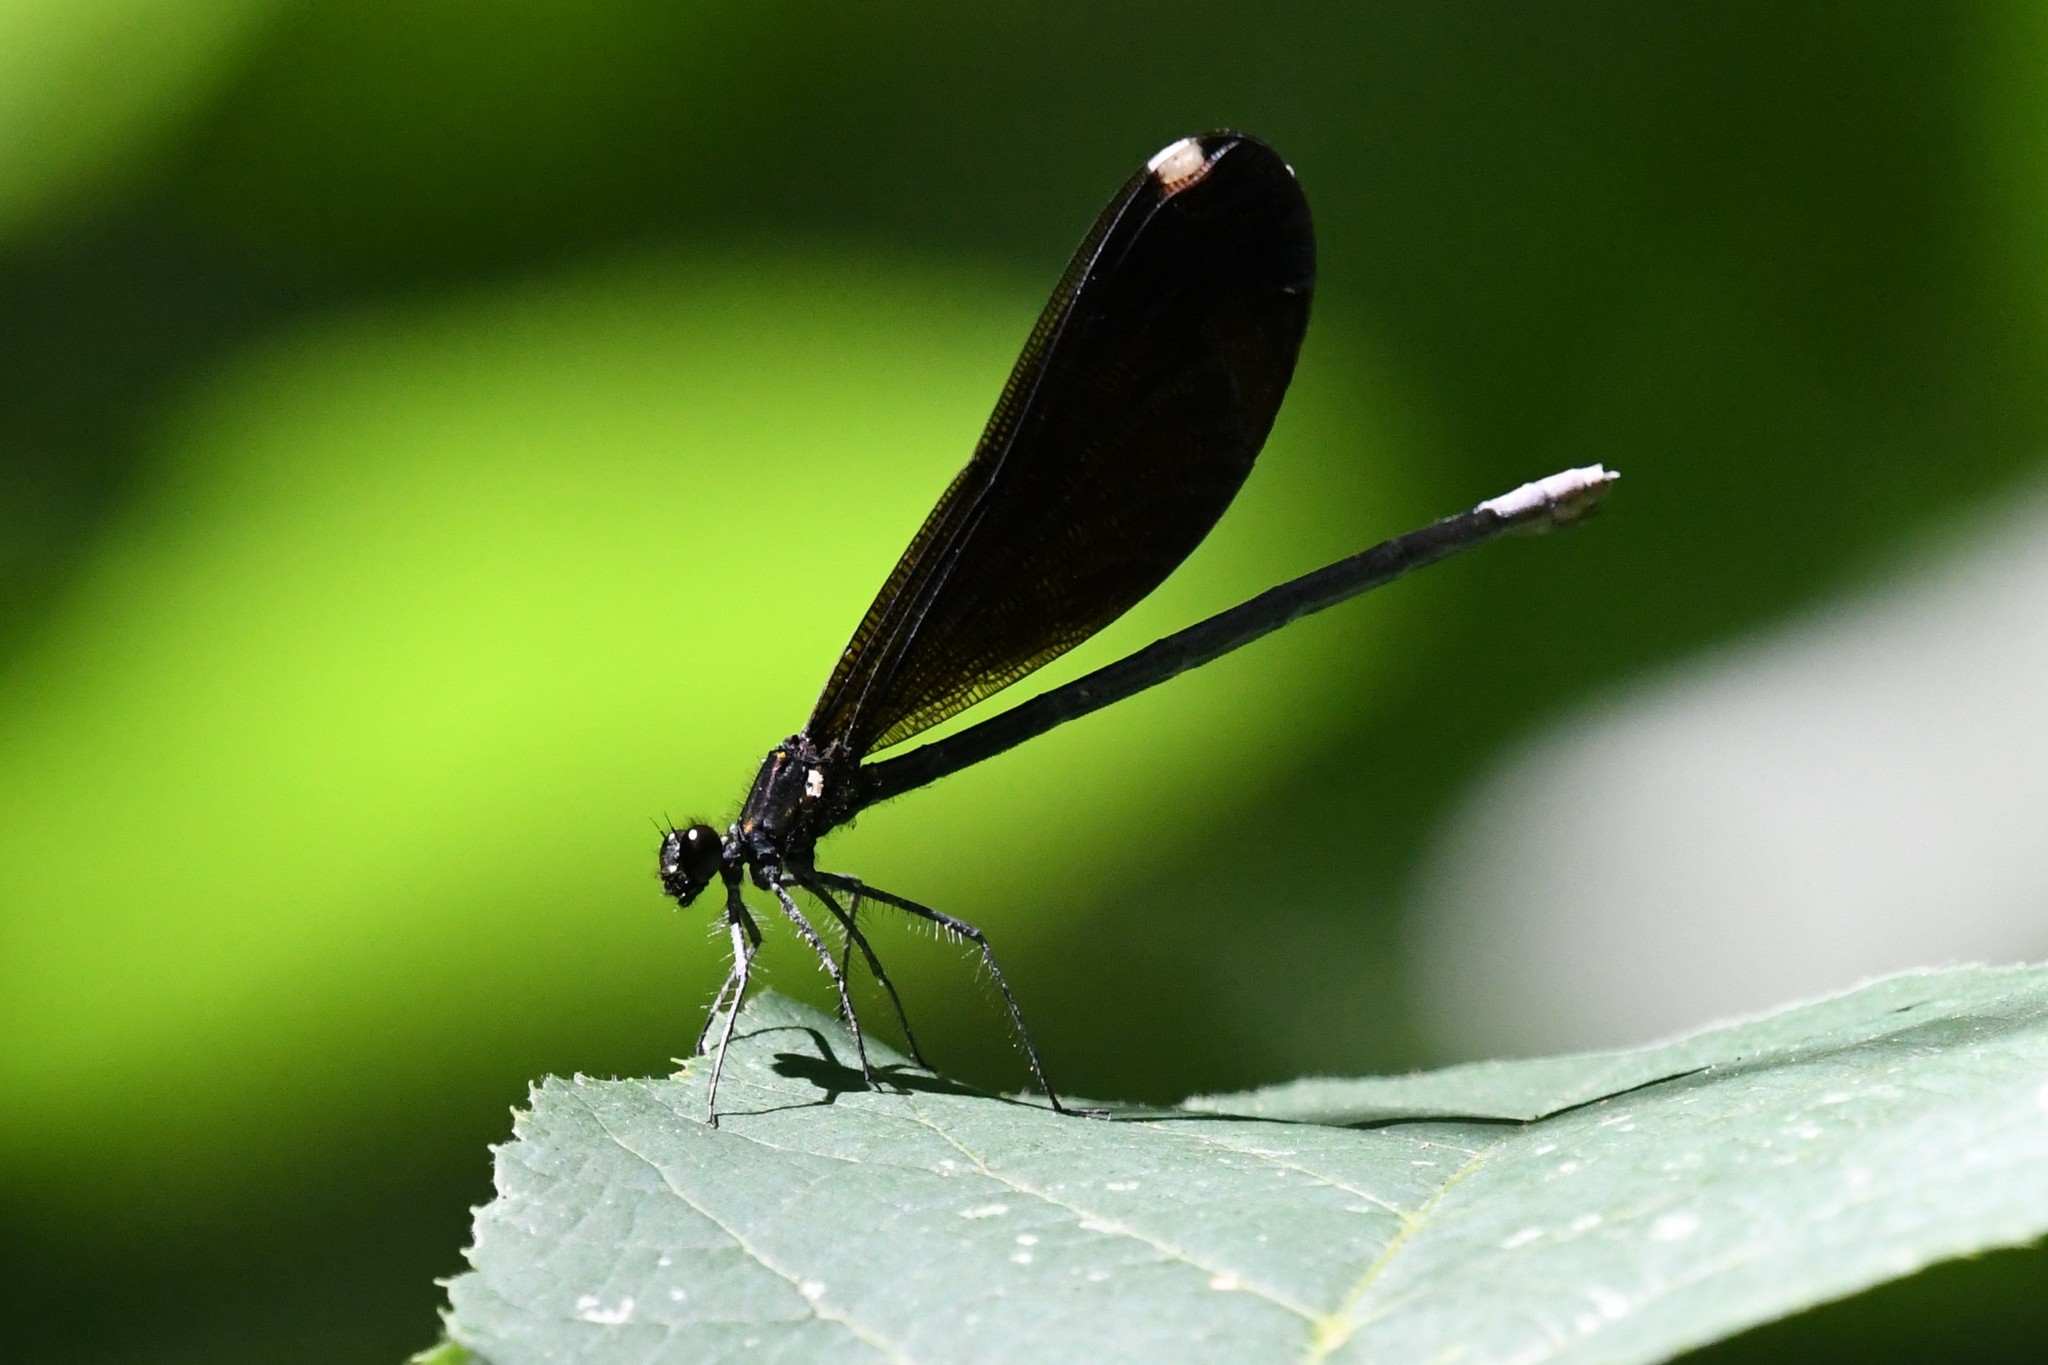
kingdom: Animalia
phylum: Arthropoda
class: Insecta
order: Odonata
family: Calopterygidae
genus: Calopteryx
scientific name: Calopteryx maculata
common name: Ebony jewelwing
